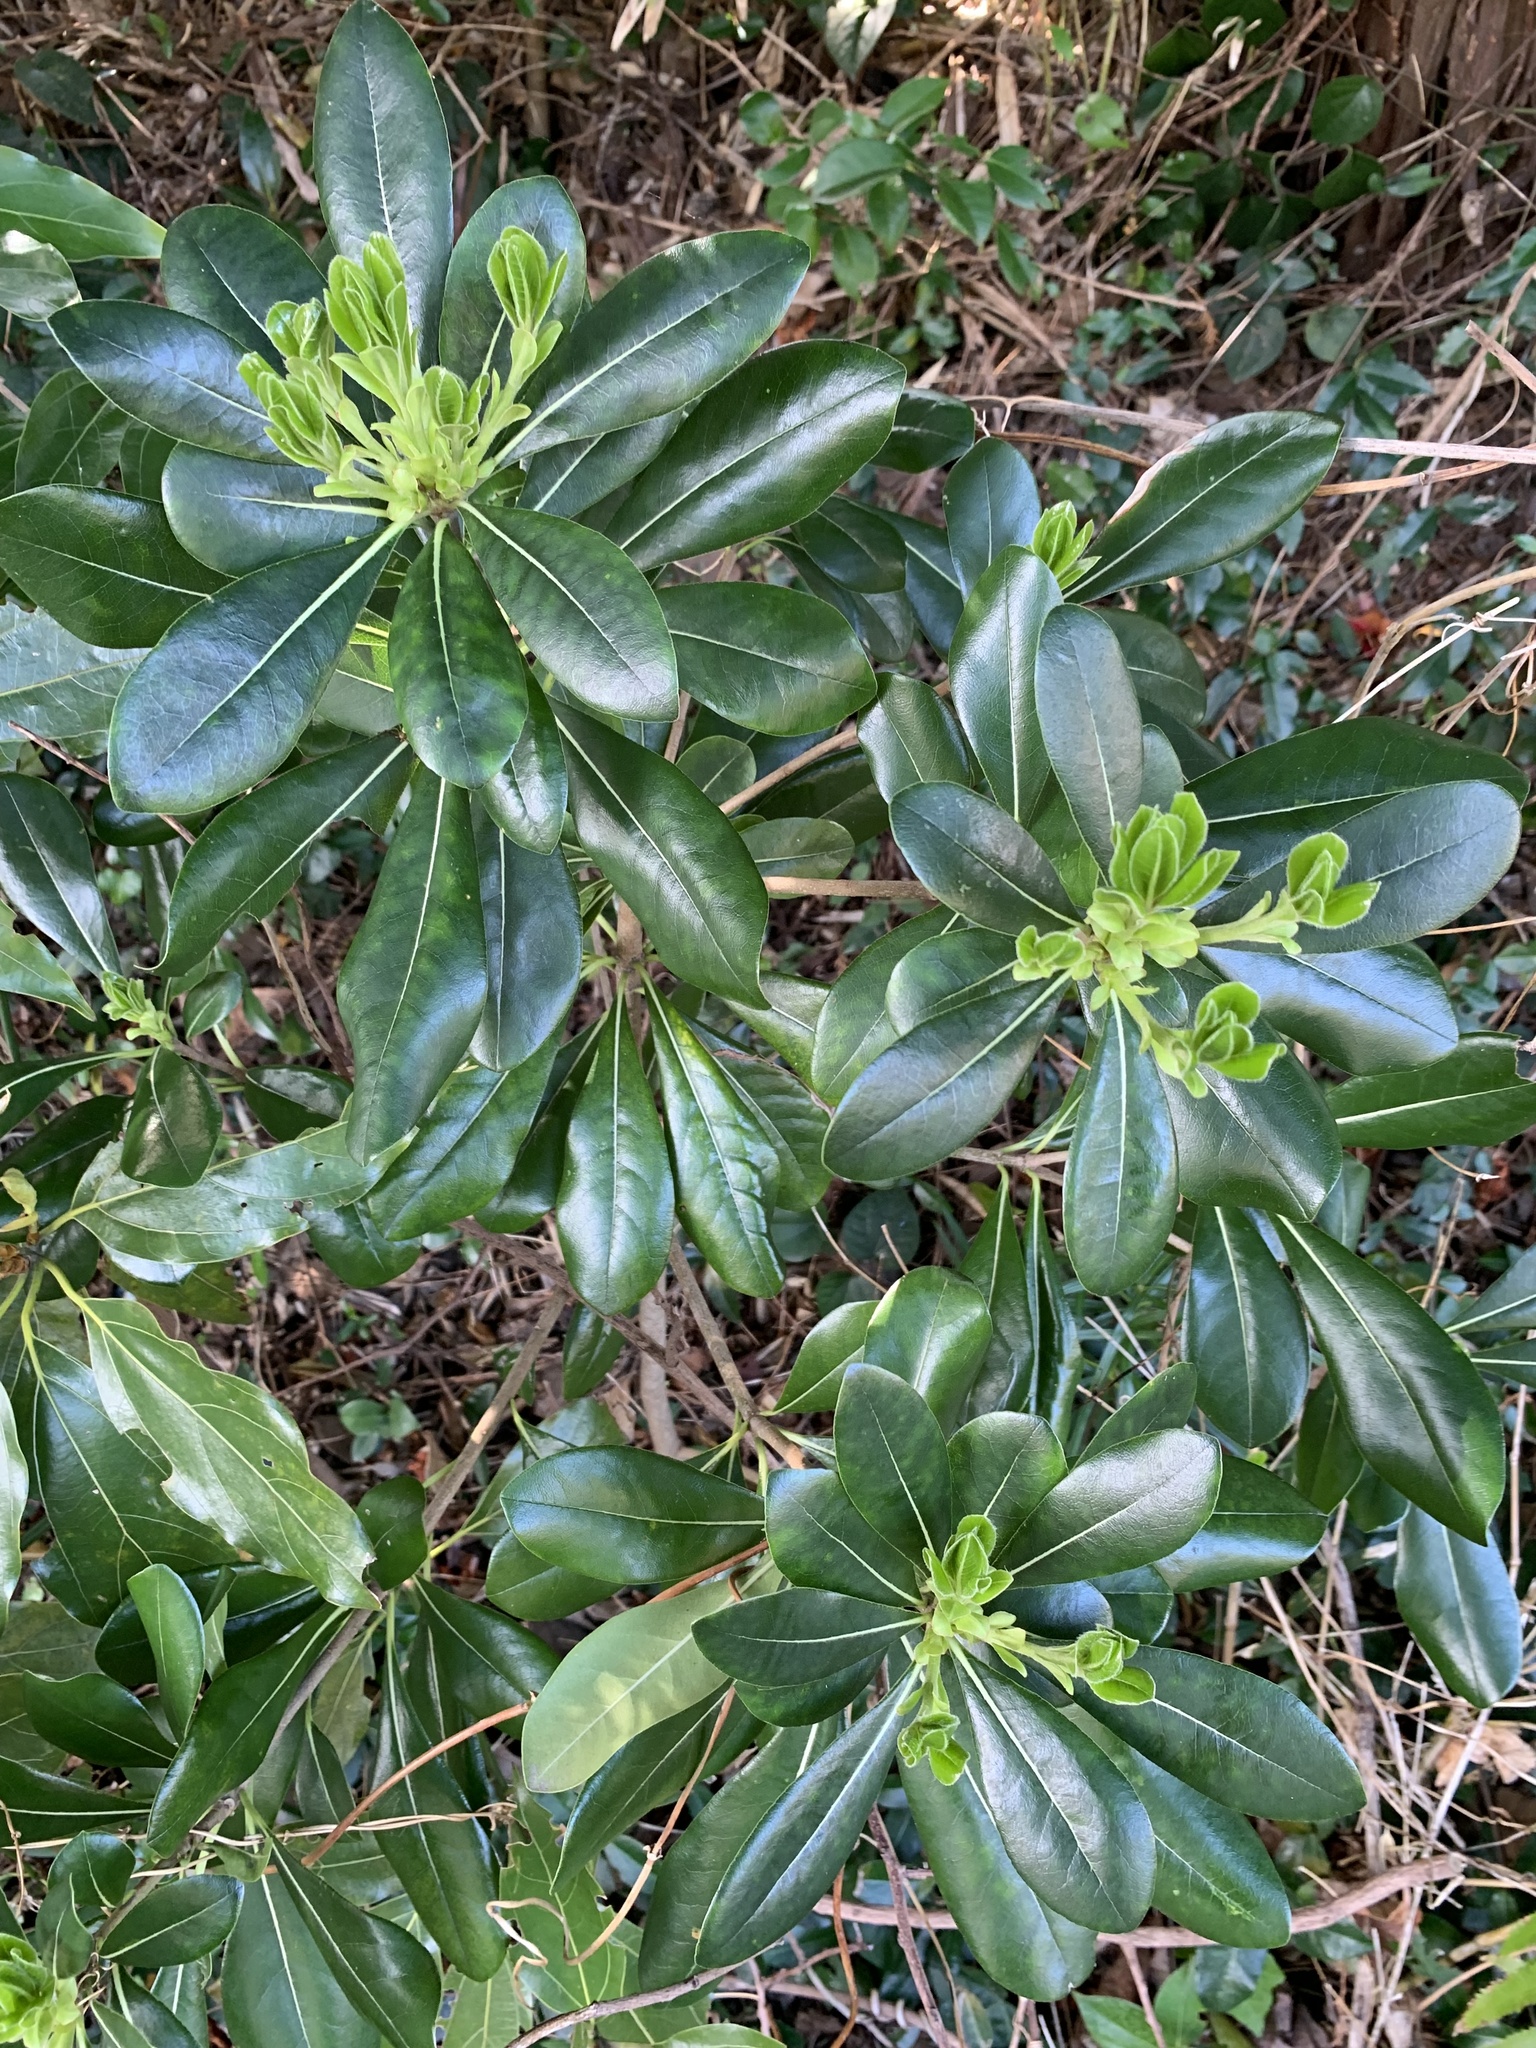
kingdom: Plantae
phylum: Tracheophyta
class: Magnoliopsida
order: Apiales
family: Pittosporaceae
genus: Pittosporum
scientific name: Pittosporum tobira
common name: Japanese cheesewood
